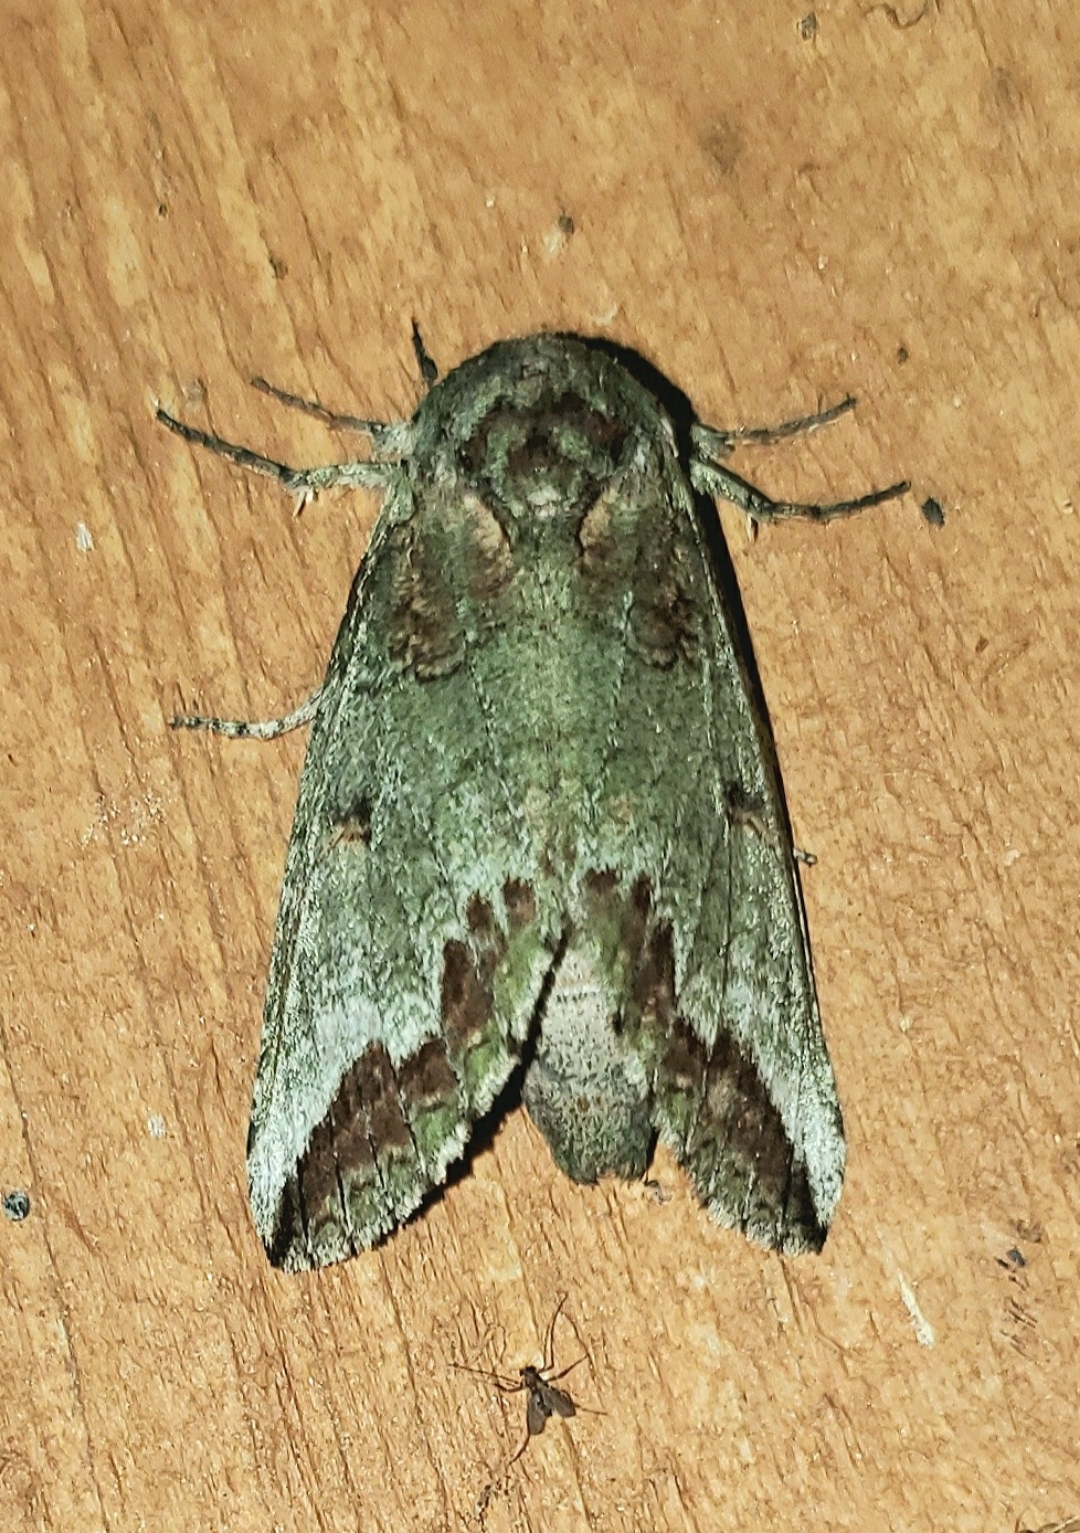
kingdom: Animalia
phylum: Arthropoda
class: Insecta
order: Lepidoptera
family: Notodontidae
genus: Heterocampa
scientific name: Heterocampa astarte
